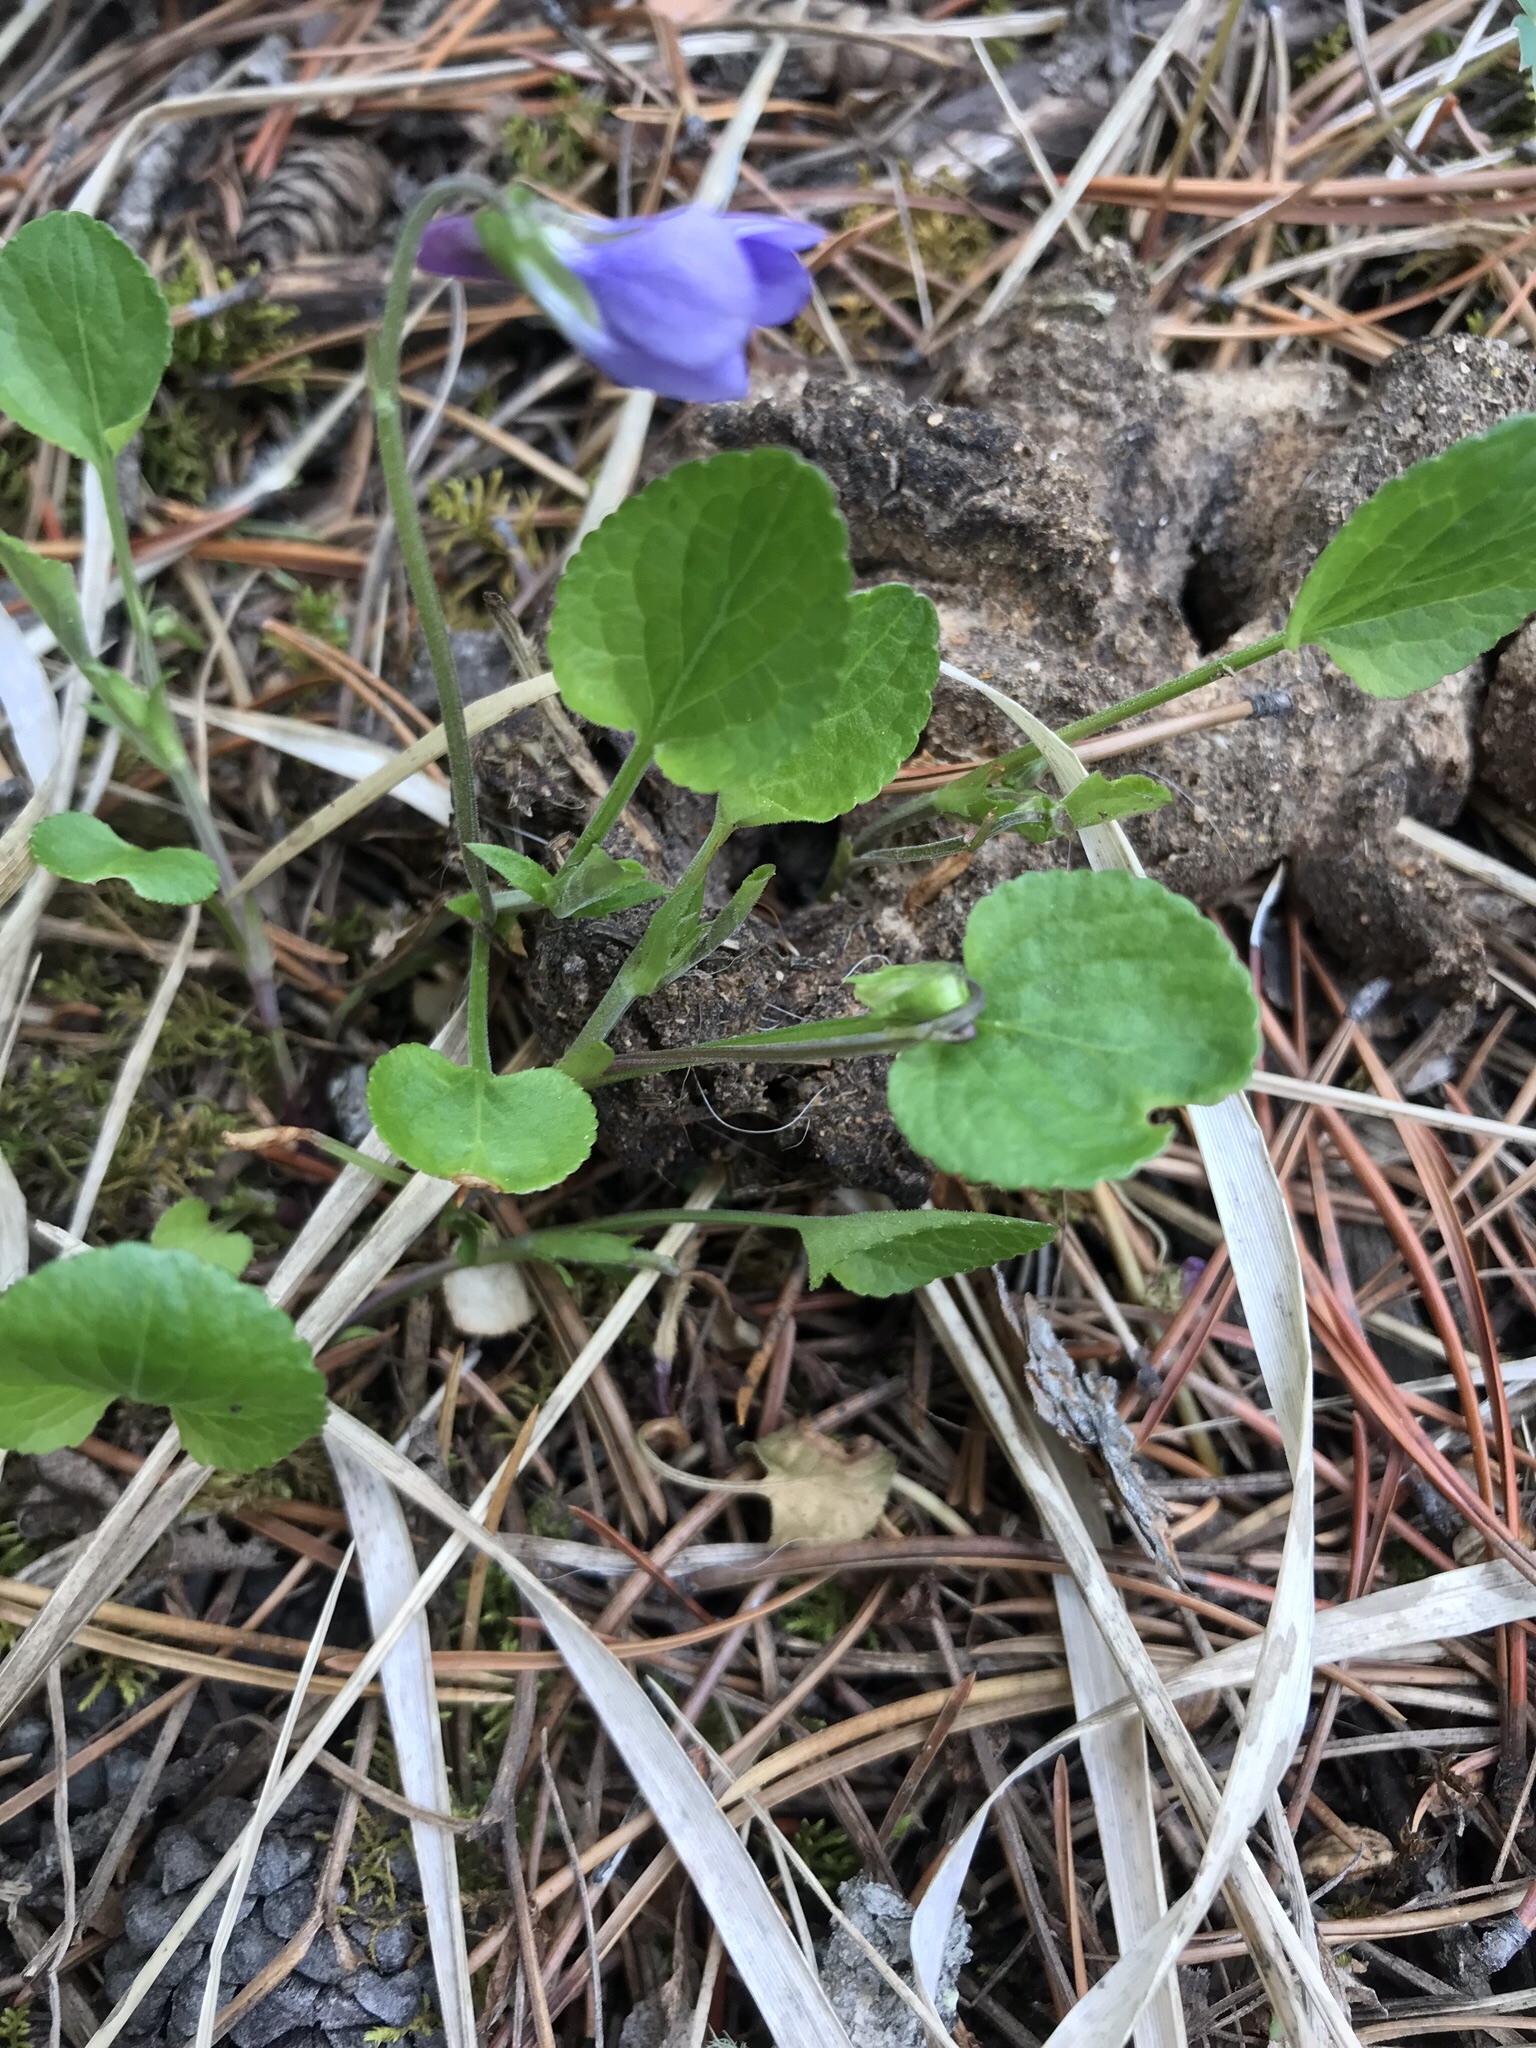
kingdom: Plantae
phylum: Tracheophyta
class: Magnoliopsida
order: Malpighiales
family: Violaceae
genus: Viola
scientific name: Viola adunca
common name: Sand violet
